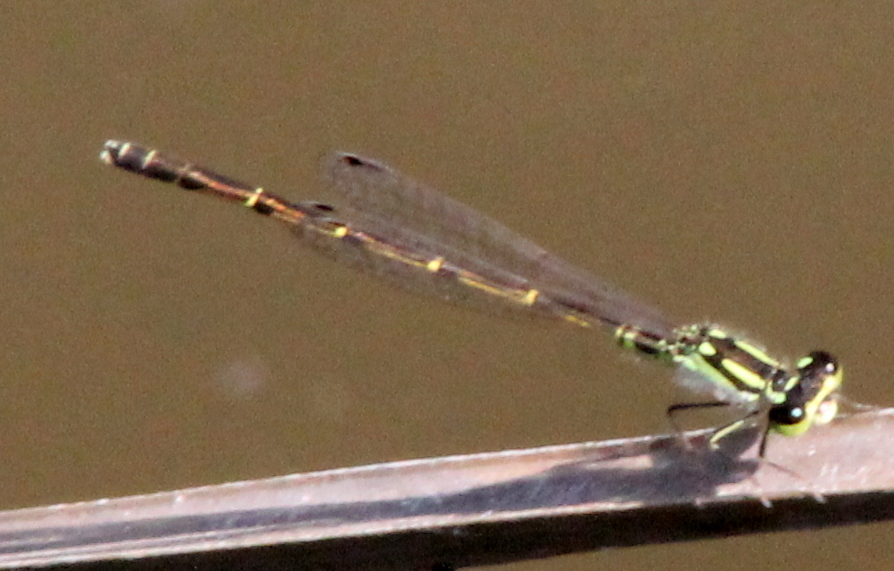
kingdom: Animalia
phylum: Arthropoda
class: Insecta
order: Odonata
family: Coenagrionidae
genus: Ischnura
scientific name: Ischnura posita
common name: Fragile forktail
